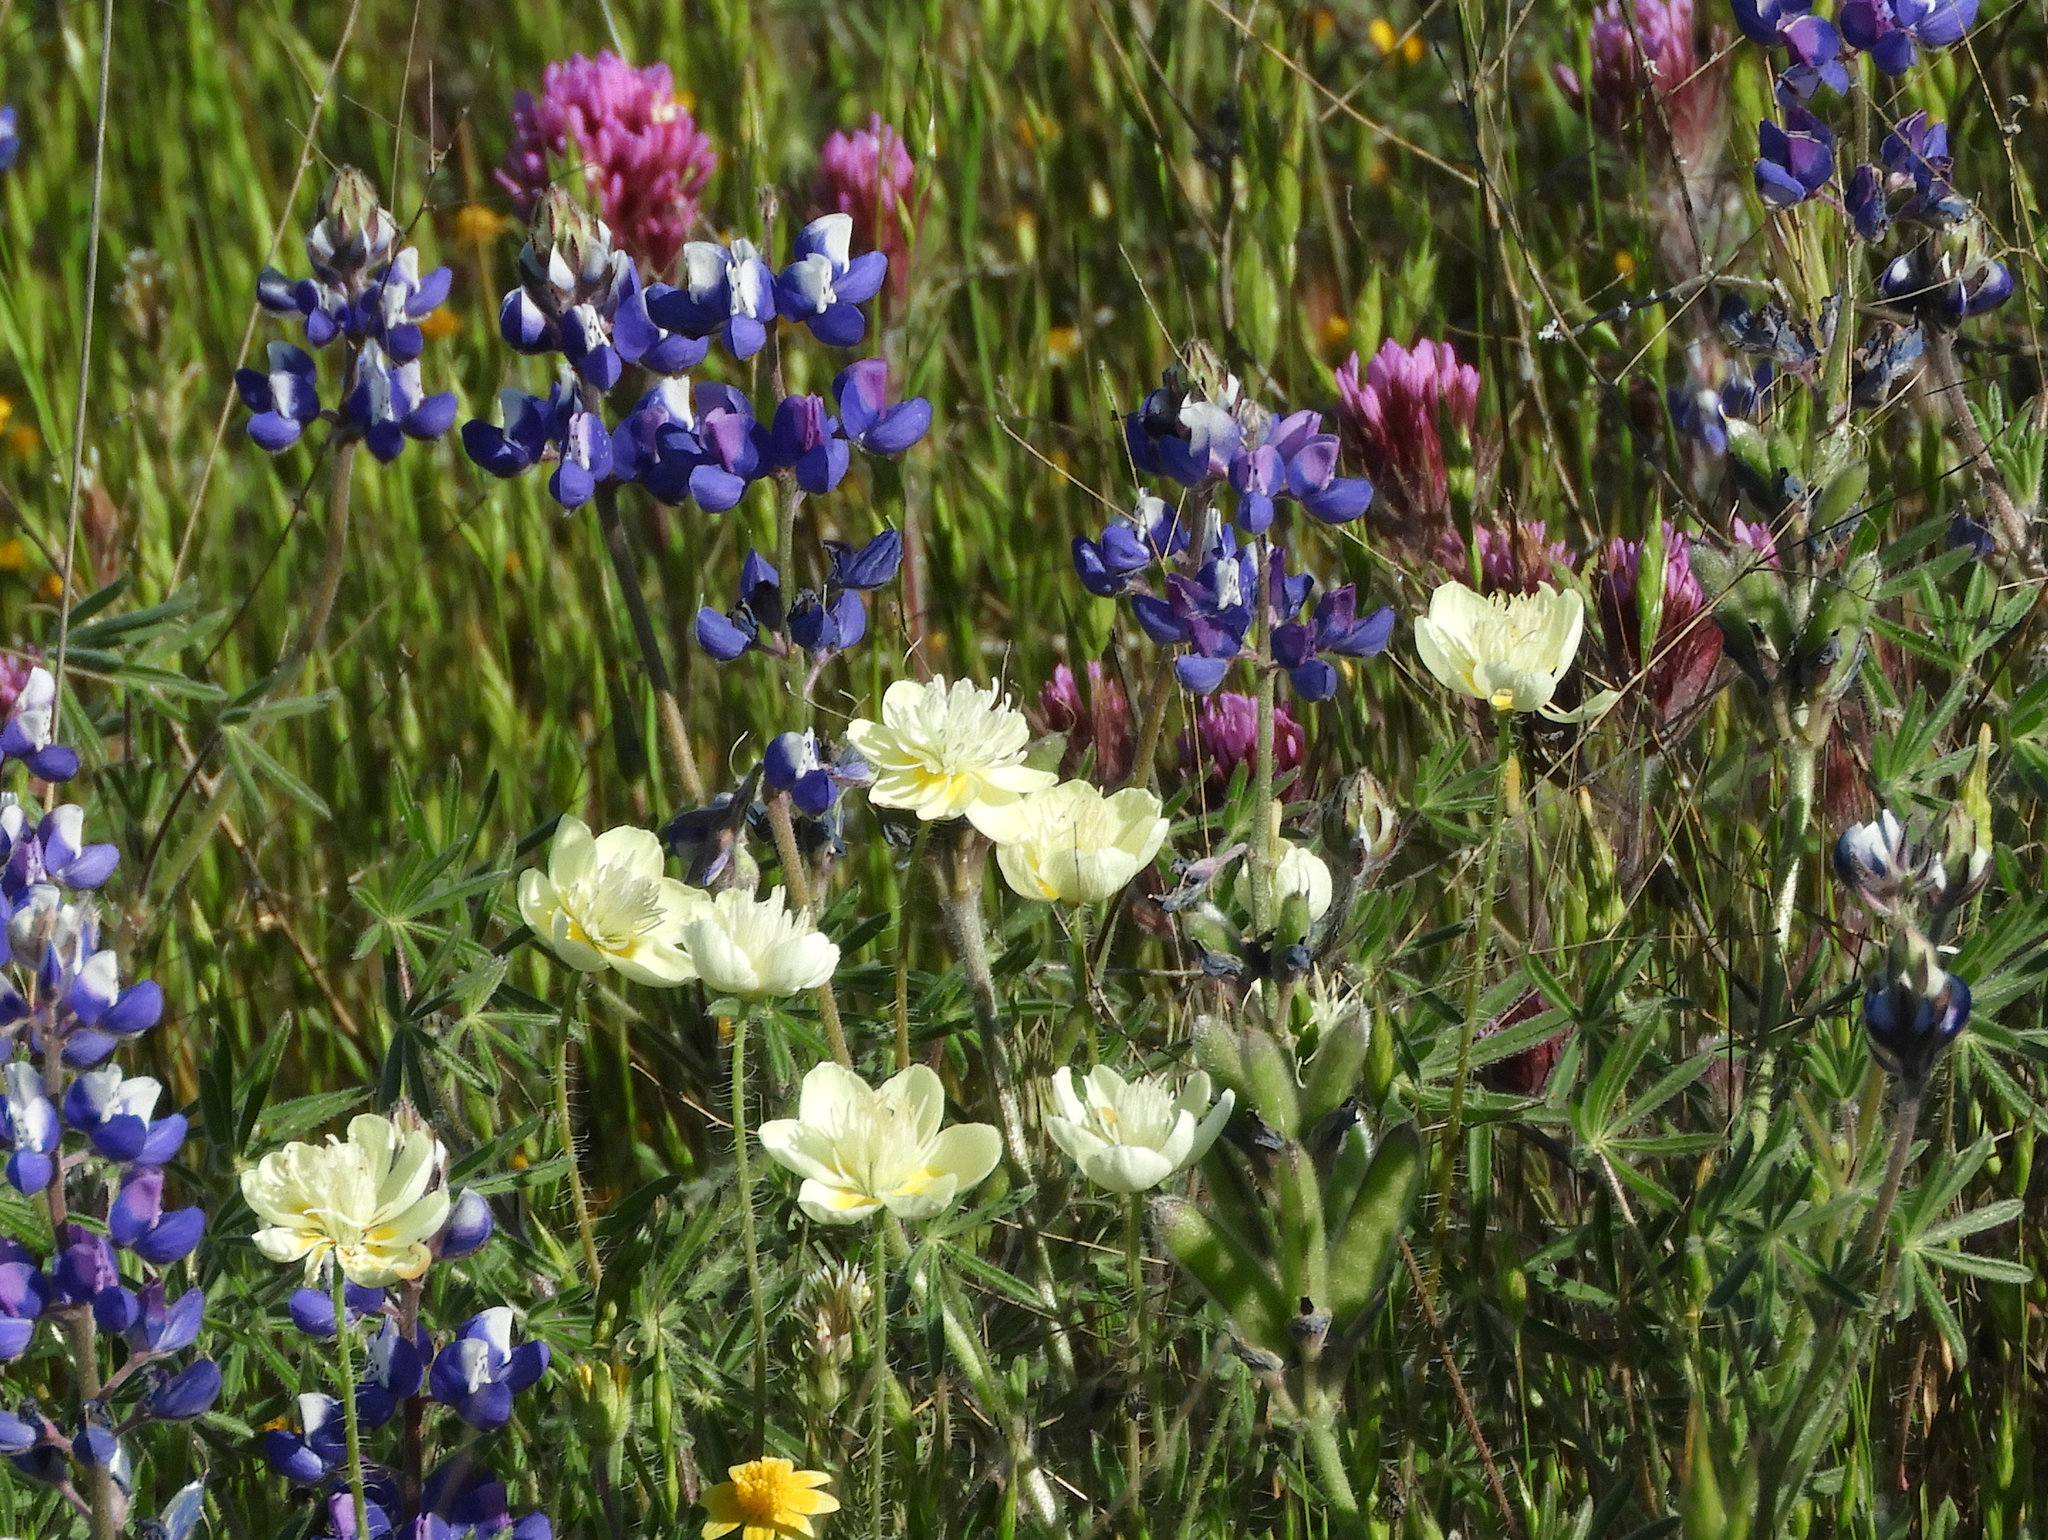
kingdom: Plantae
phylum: Tracheophyta
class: Magnoliopsida
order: Ranunculales
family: Papaveraceae
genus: Platystemon
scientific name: Platystemon californicus
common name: Cream-cups
